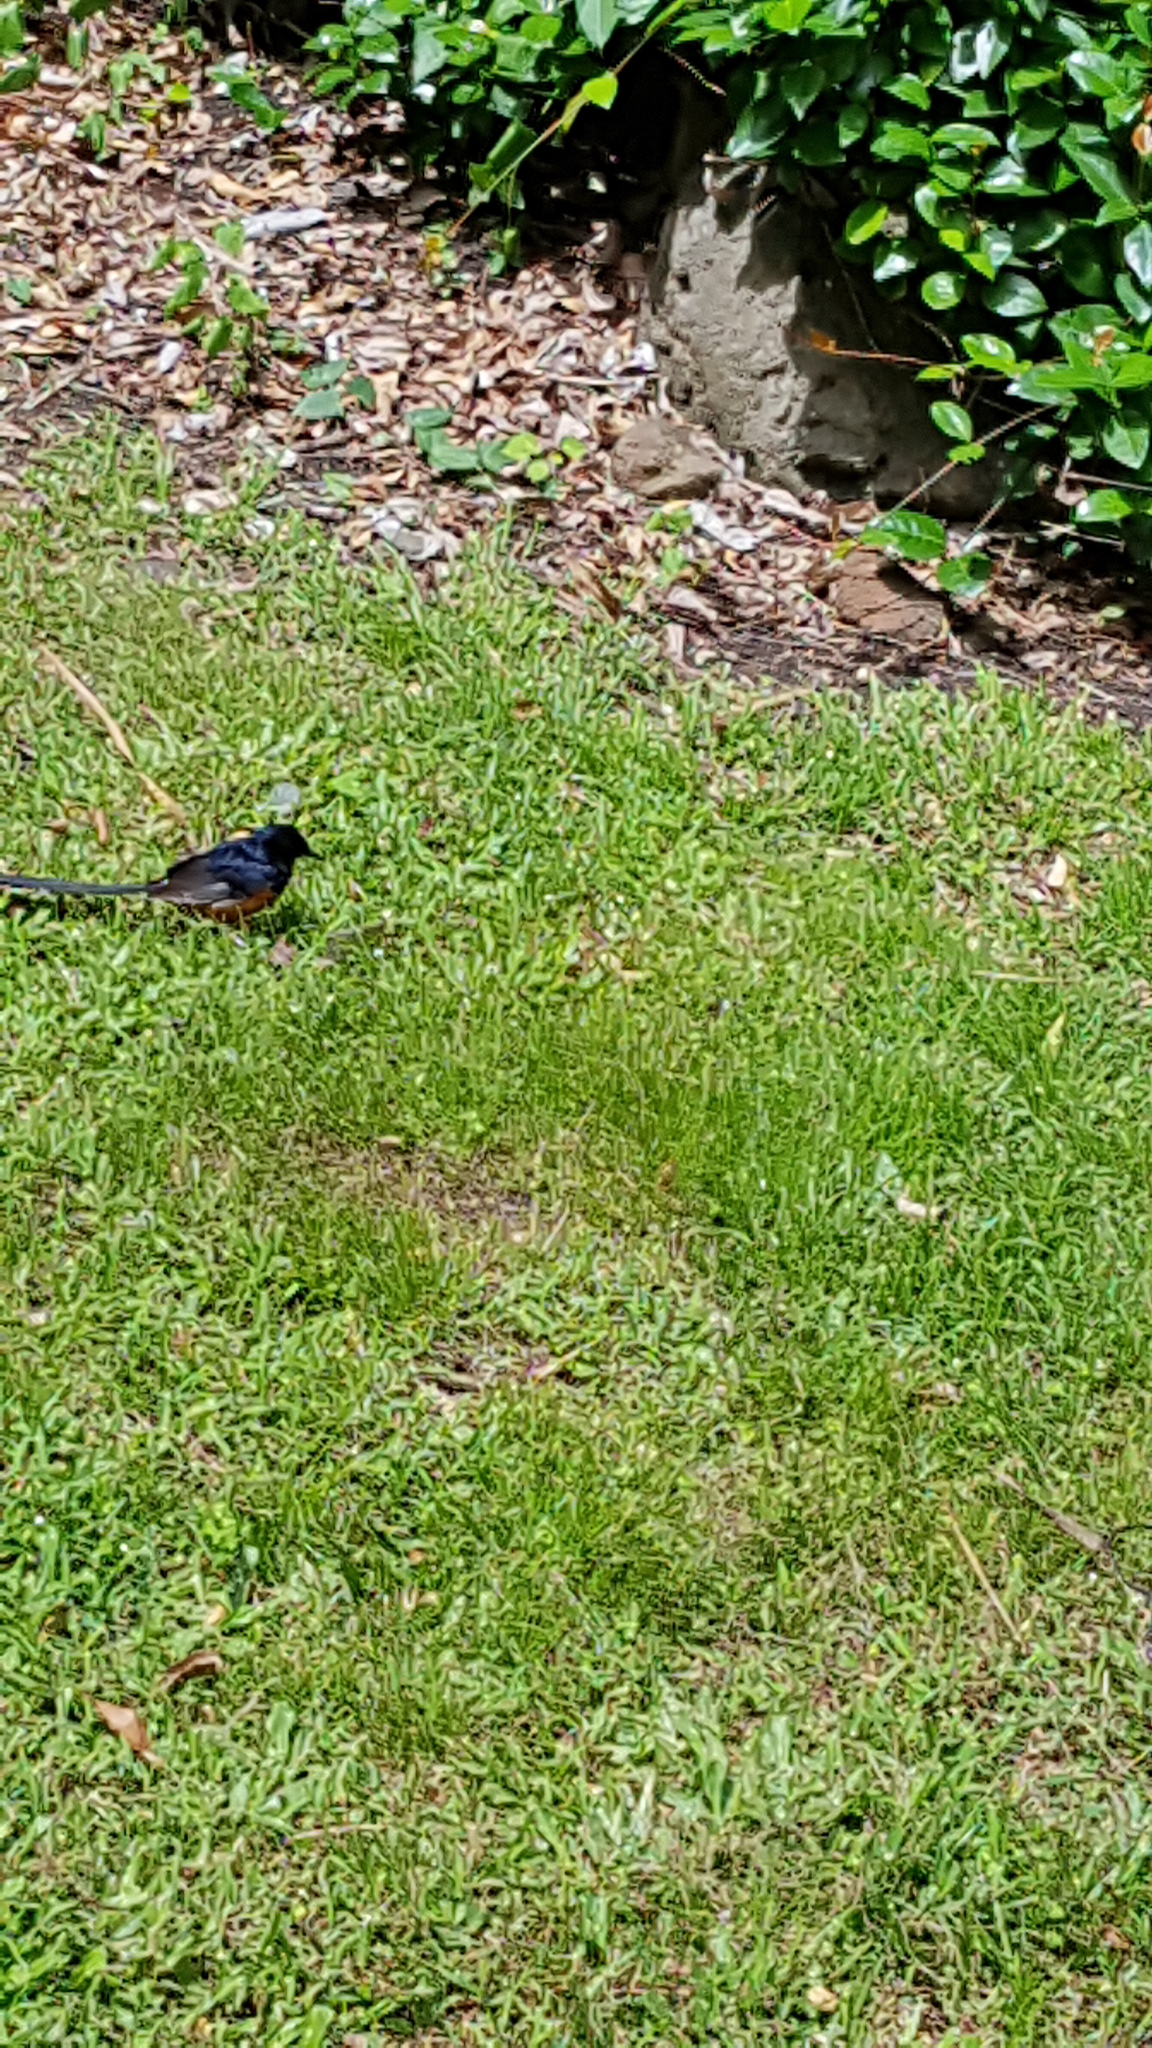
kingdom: Animalia
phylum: Chordata
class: Aves
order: Passeriformes
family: Muscicapidae
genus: Copsychus
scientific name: Copsychus malabaricus
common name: White-rumped shama
